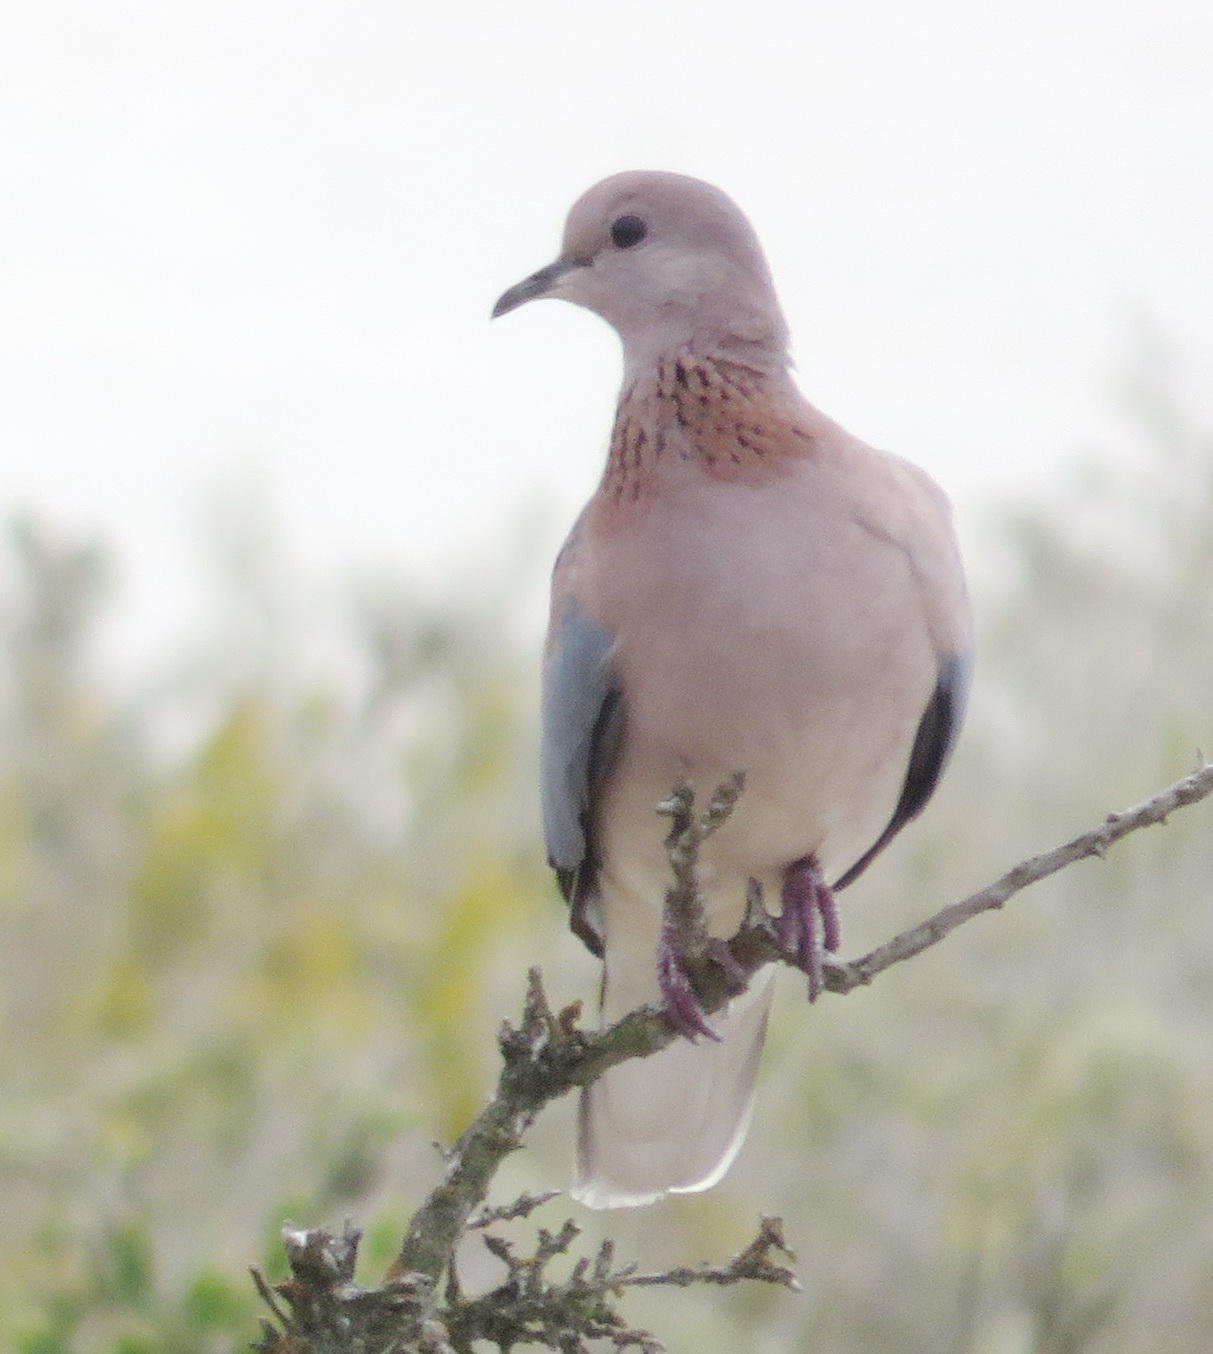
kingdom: Animalia
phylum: Chordata
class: Aves
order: Columbiformes
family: Columbidae
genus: Spilopelia
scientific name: Spilopelia senegalensis
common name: Laughing dove
